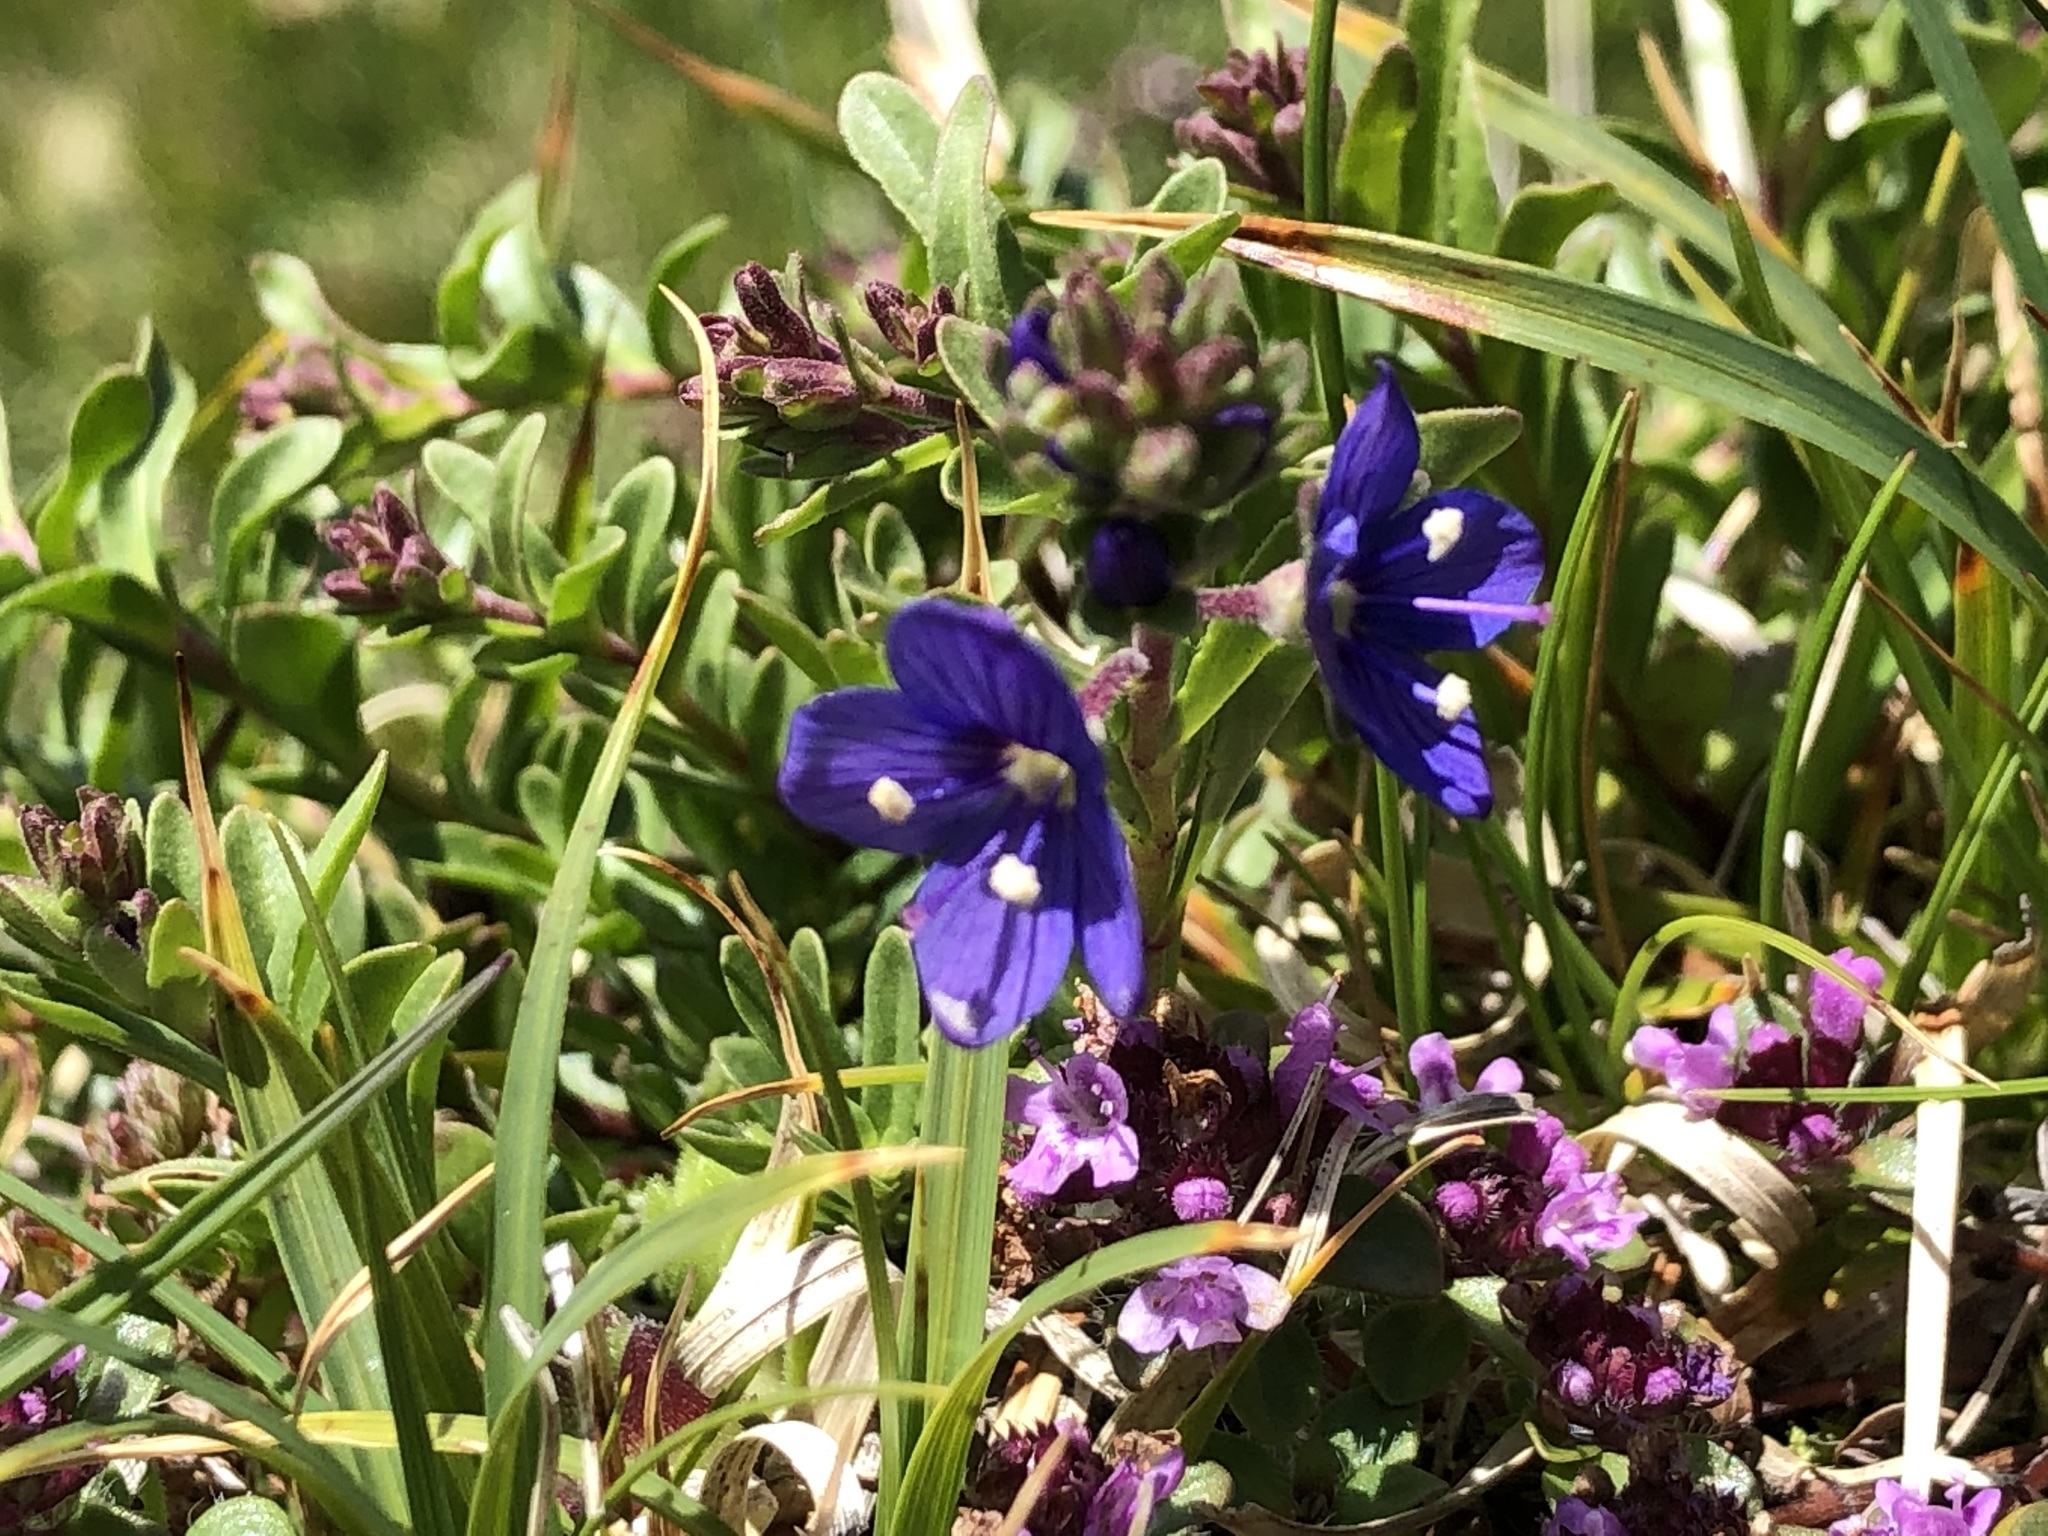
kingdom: Plantae
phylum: Tracheophyta
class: Magnoliopsida
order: Lamiales
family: Plantaginaceae
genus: Veronica
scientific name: Veronica fruticans
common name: Rock speedwell
